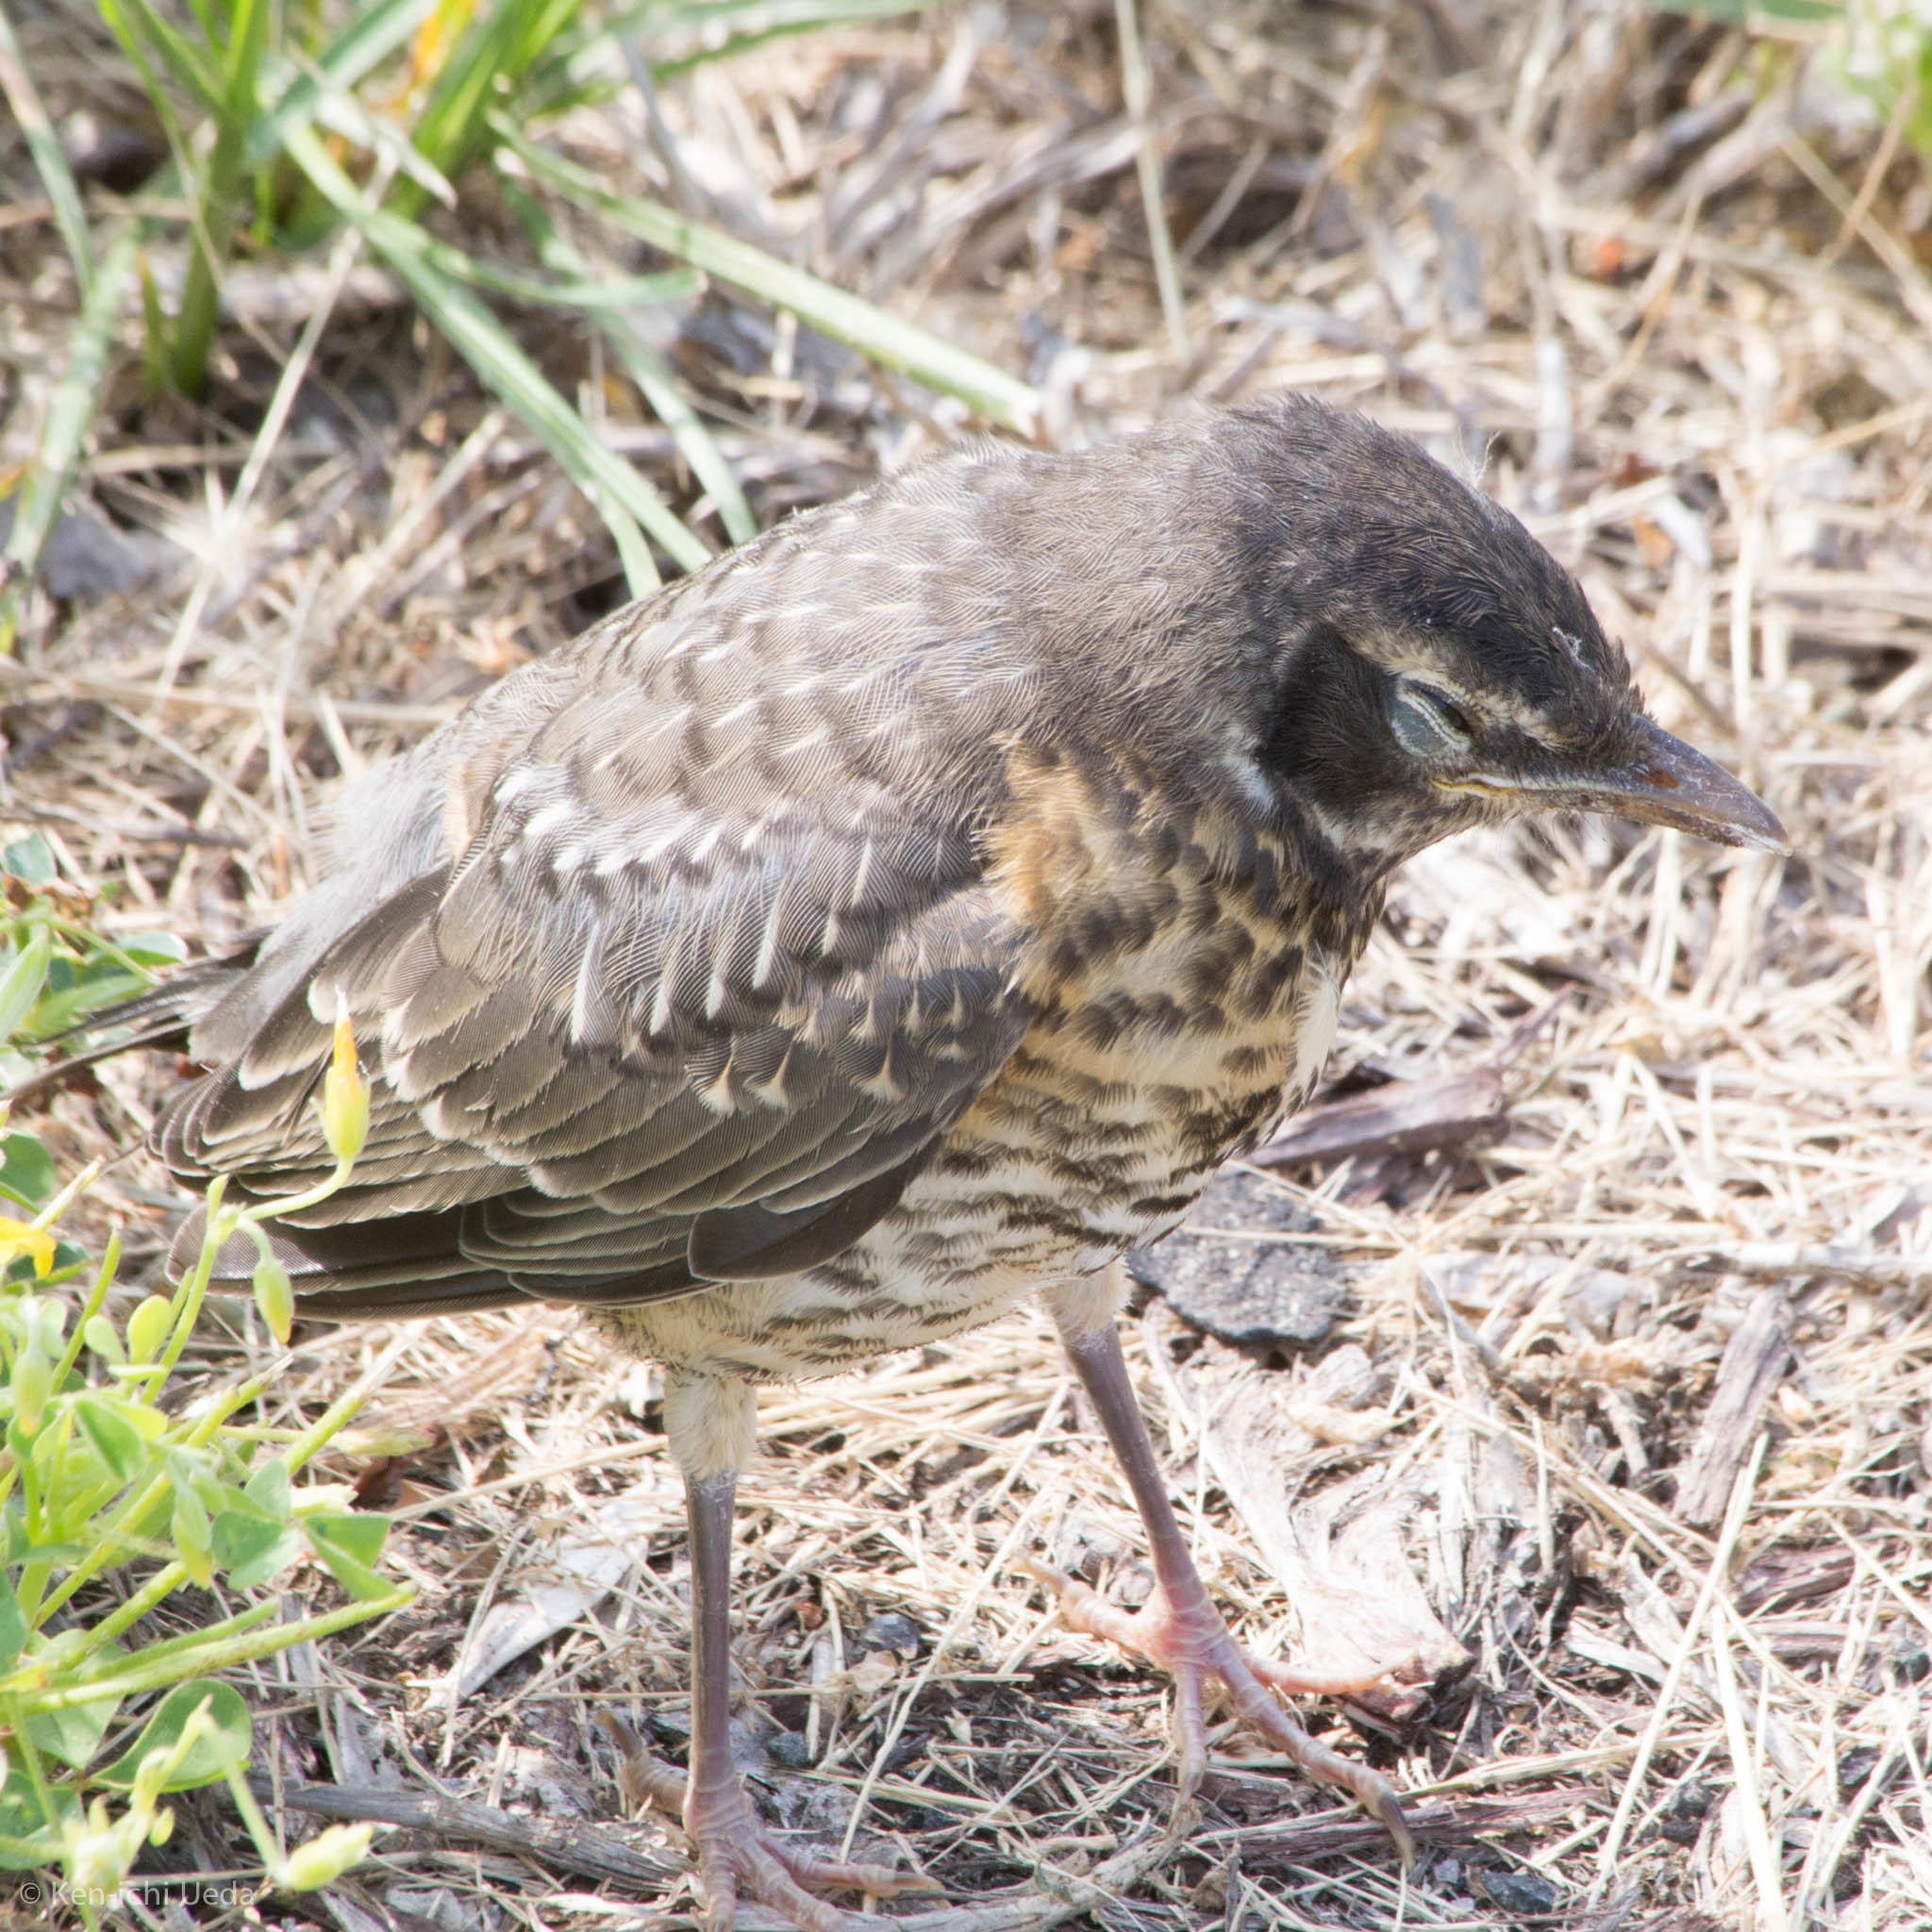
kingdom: Animalia
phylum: Chordata
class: Aves
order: Passeriformes
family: Turdidae
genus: Turdus
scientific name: Turdus migratorius
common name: American robin
